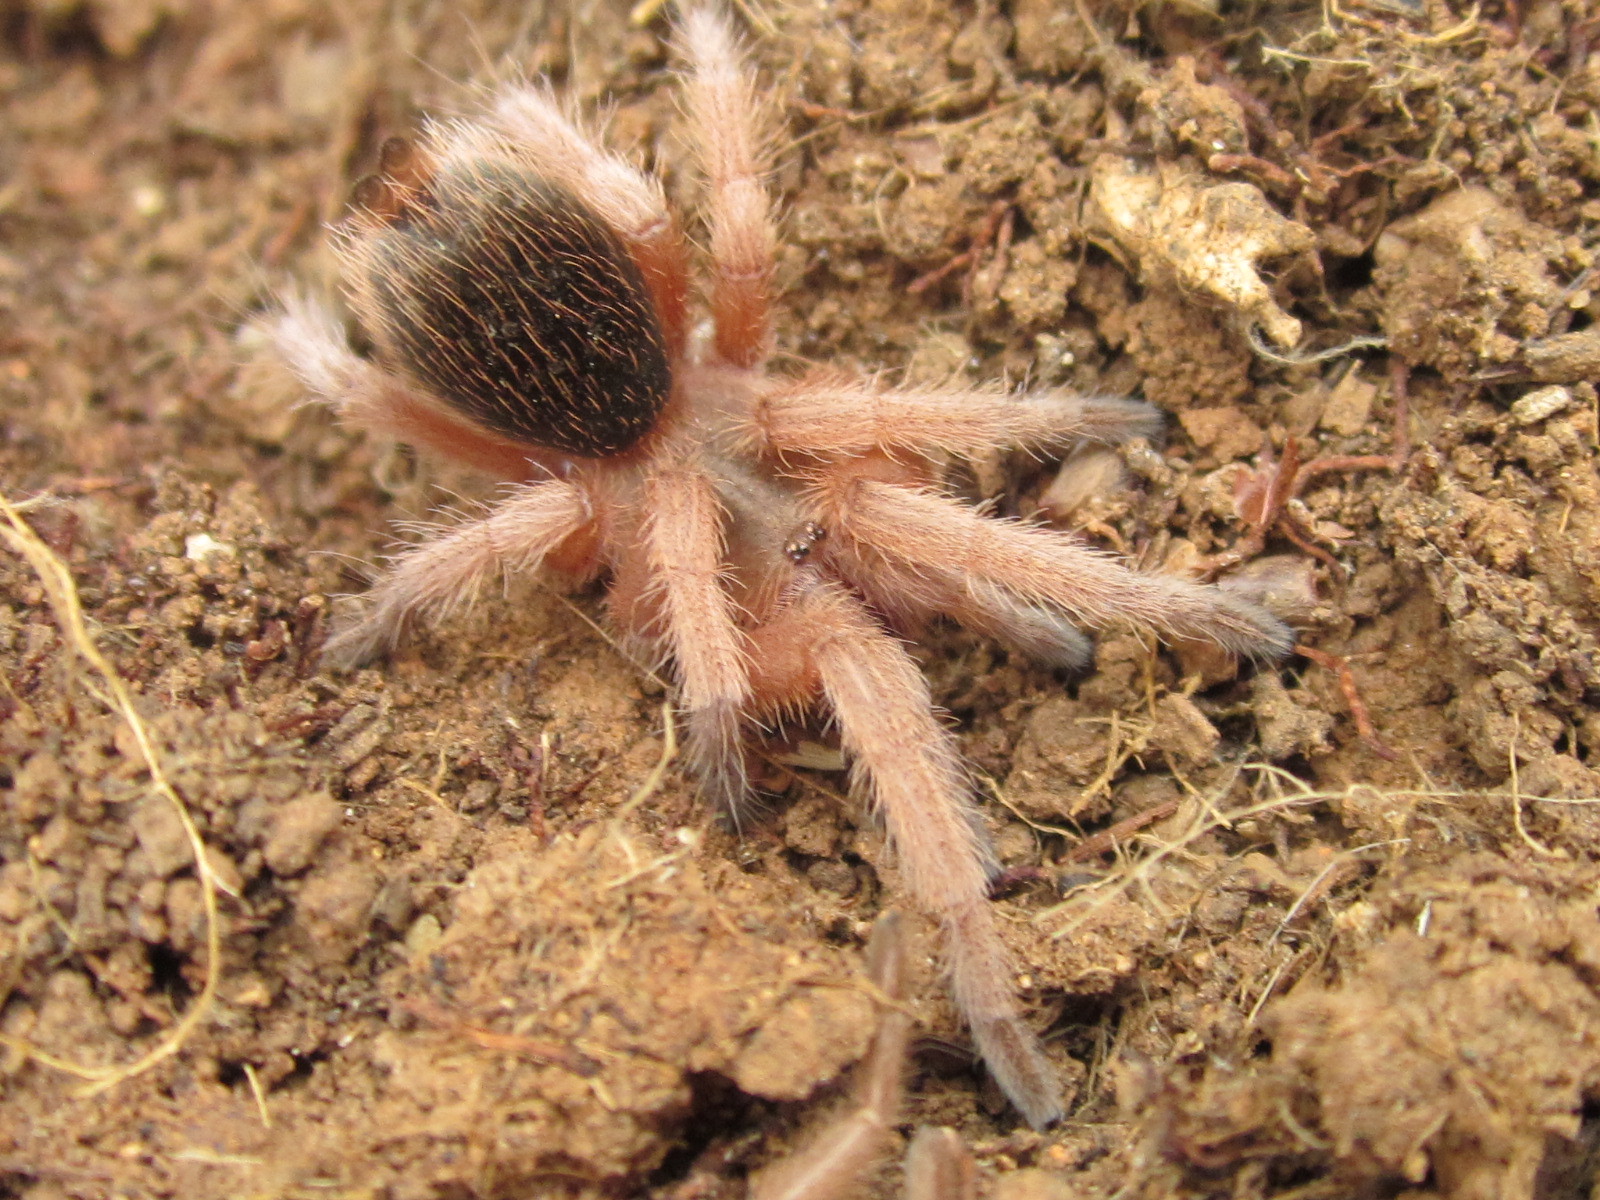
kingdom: Animalia
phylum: Arthropoda
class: Arachnida
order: Araneae
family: Theraphosidae
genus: Grammostola
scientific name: Grammostola rosea
